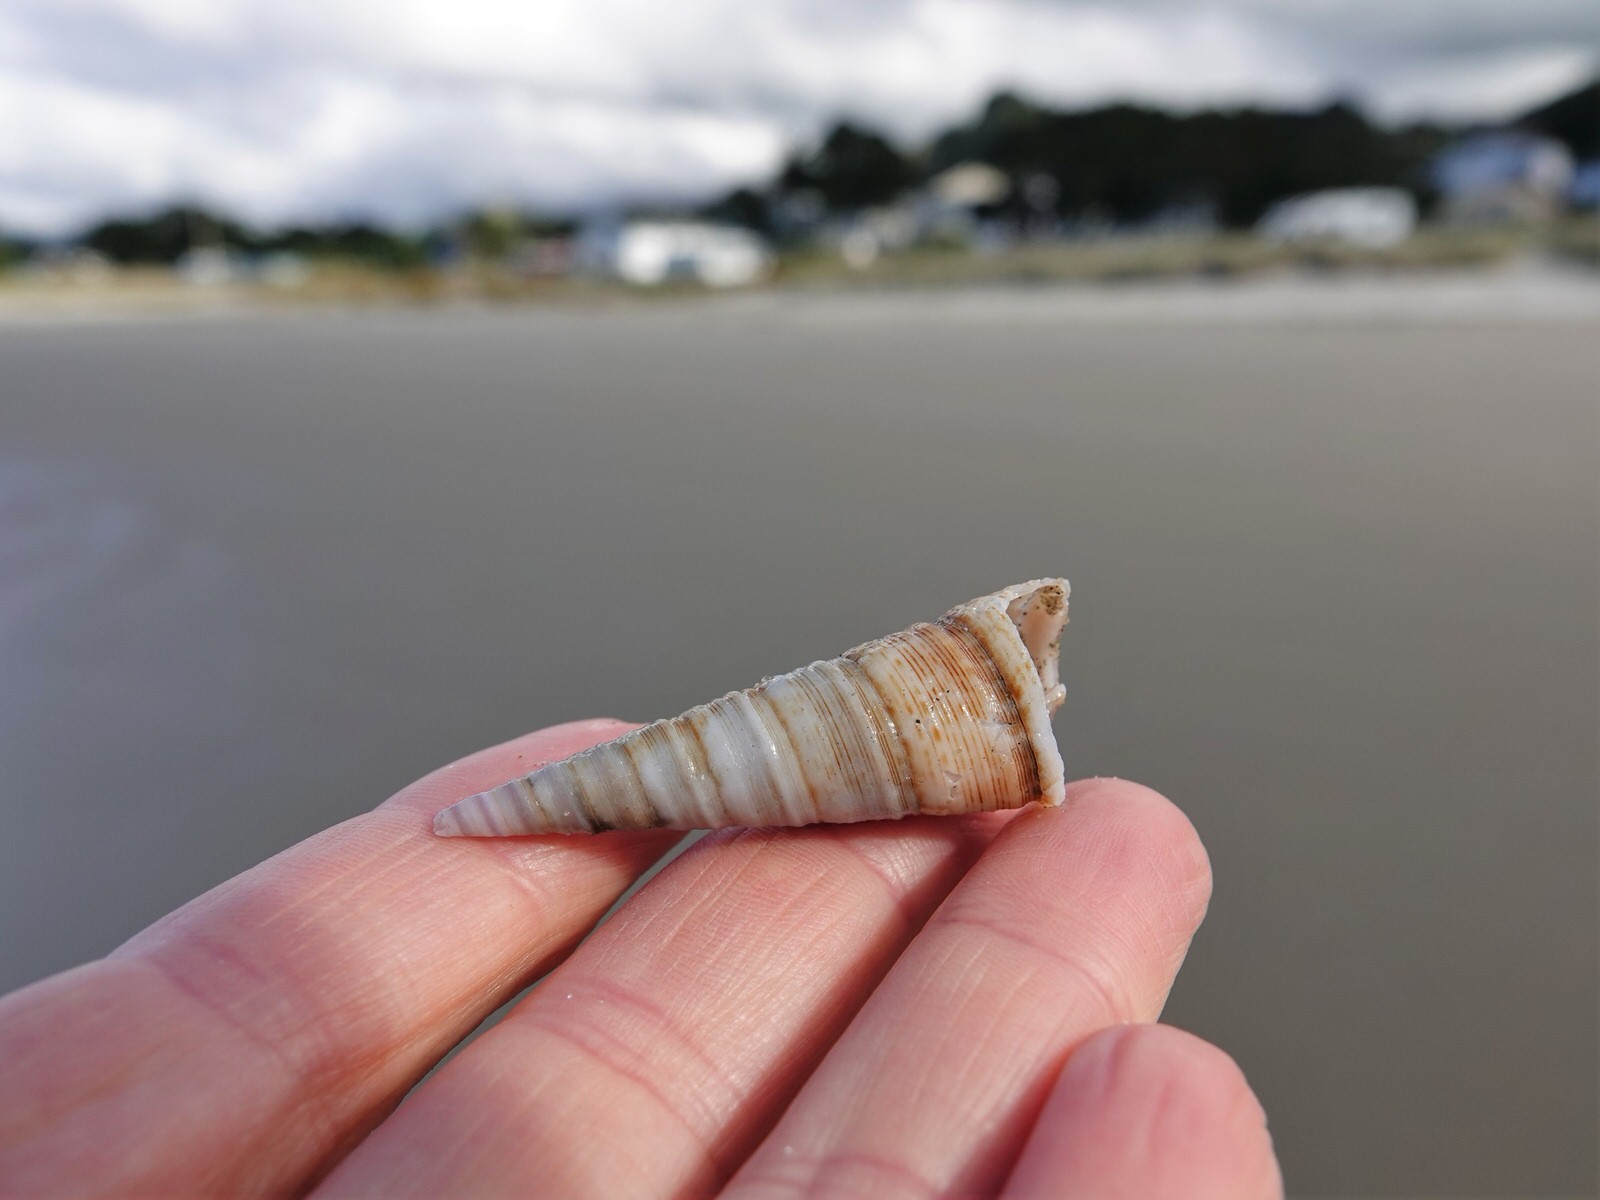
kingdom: Animalia
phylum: Mollusca
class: Gastropoda
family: Turritellidae
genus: Maoricolpus
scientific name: Maoricolpus roseus
